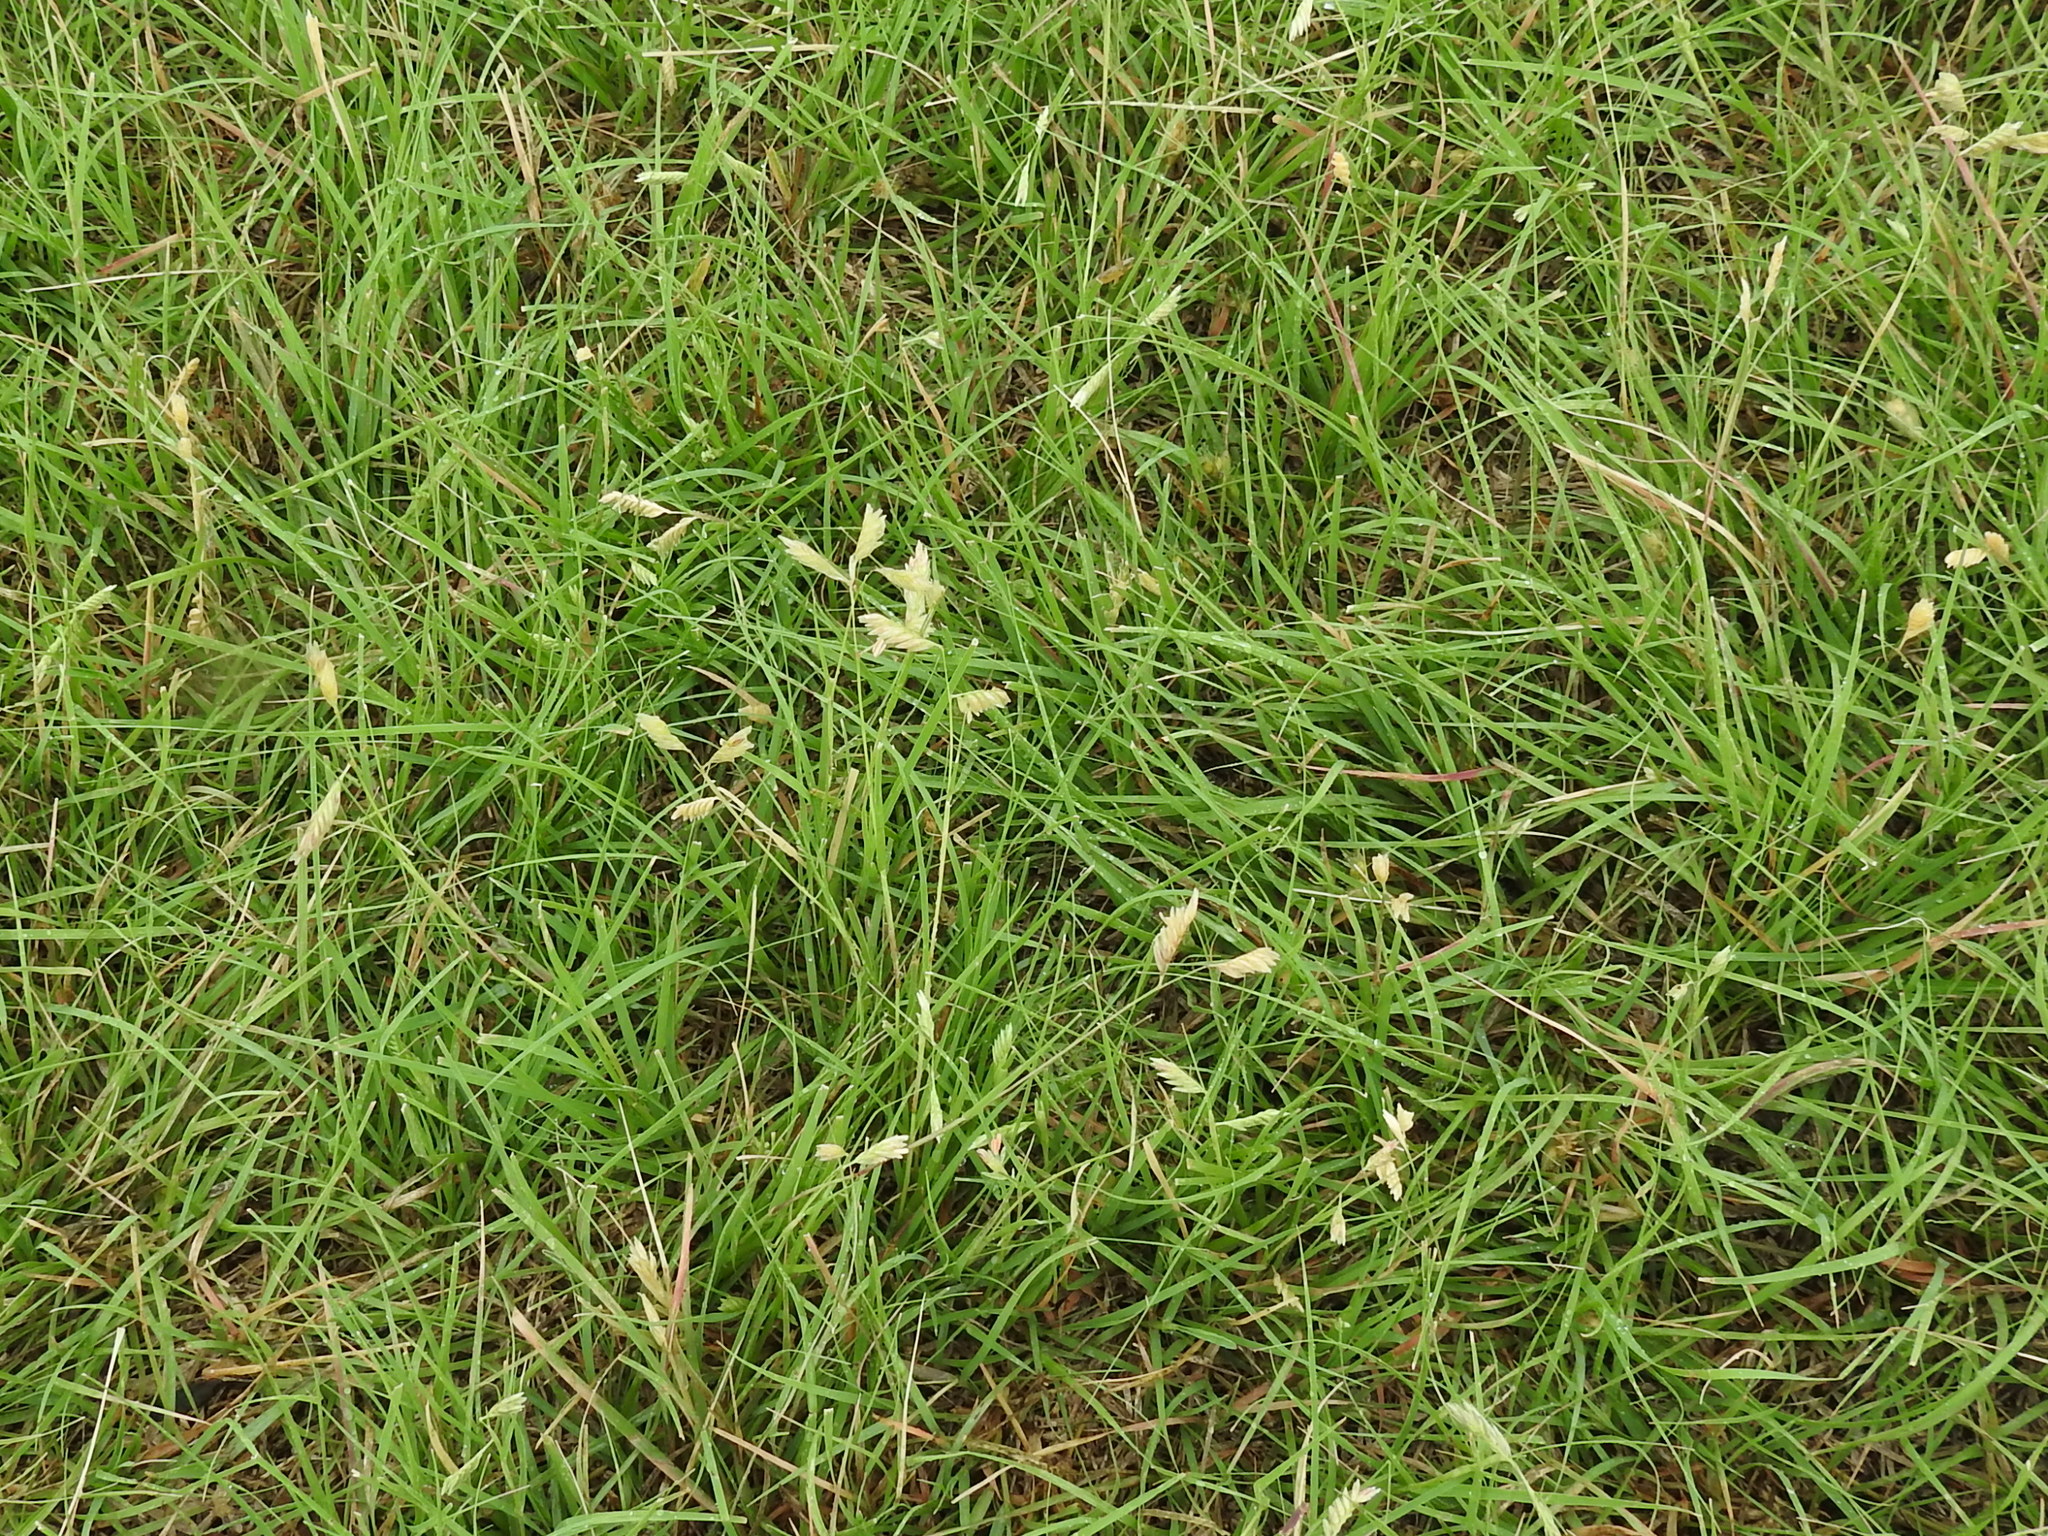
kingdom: Plantae
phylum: Tracheophyta
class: Liliopsida
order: Poales
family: Poaceae
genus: Bouteloua
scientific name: Bouteloua dactyloides
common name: Buffalo grass
